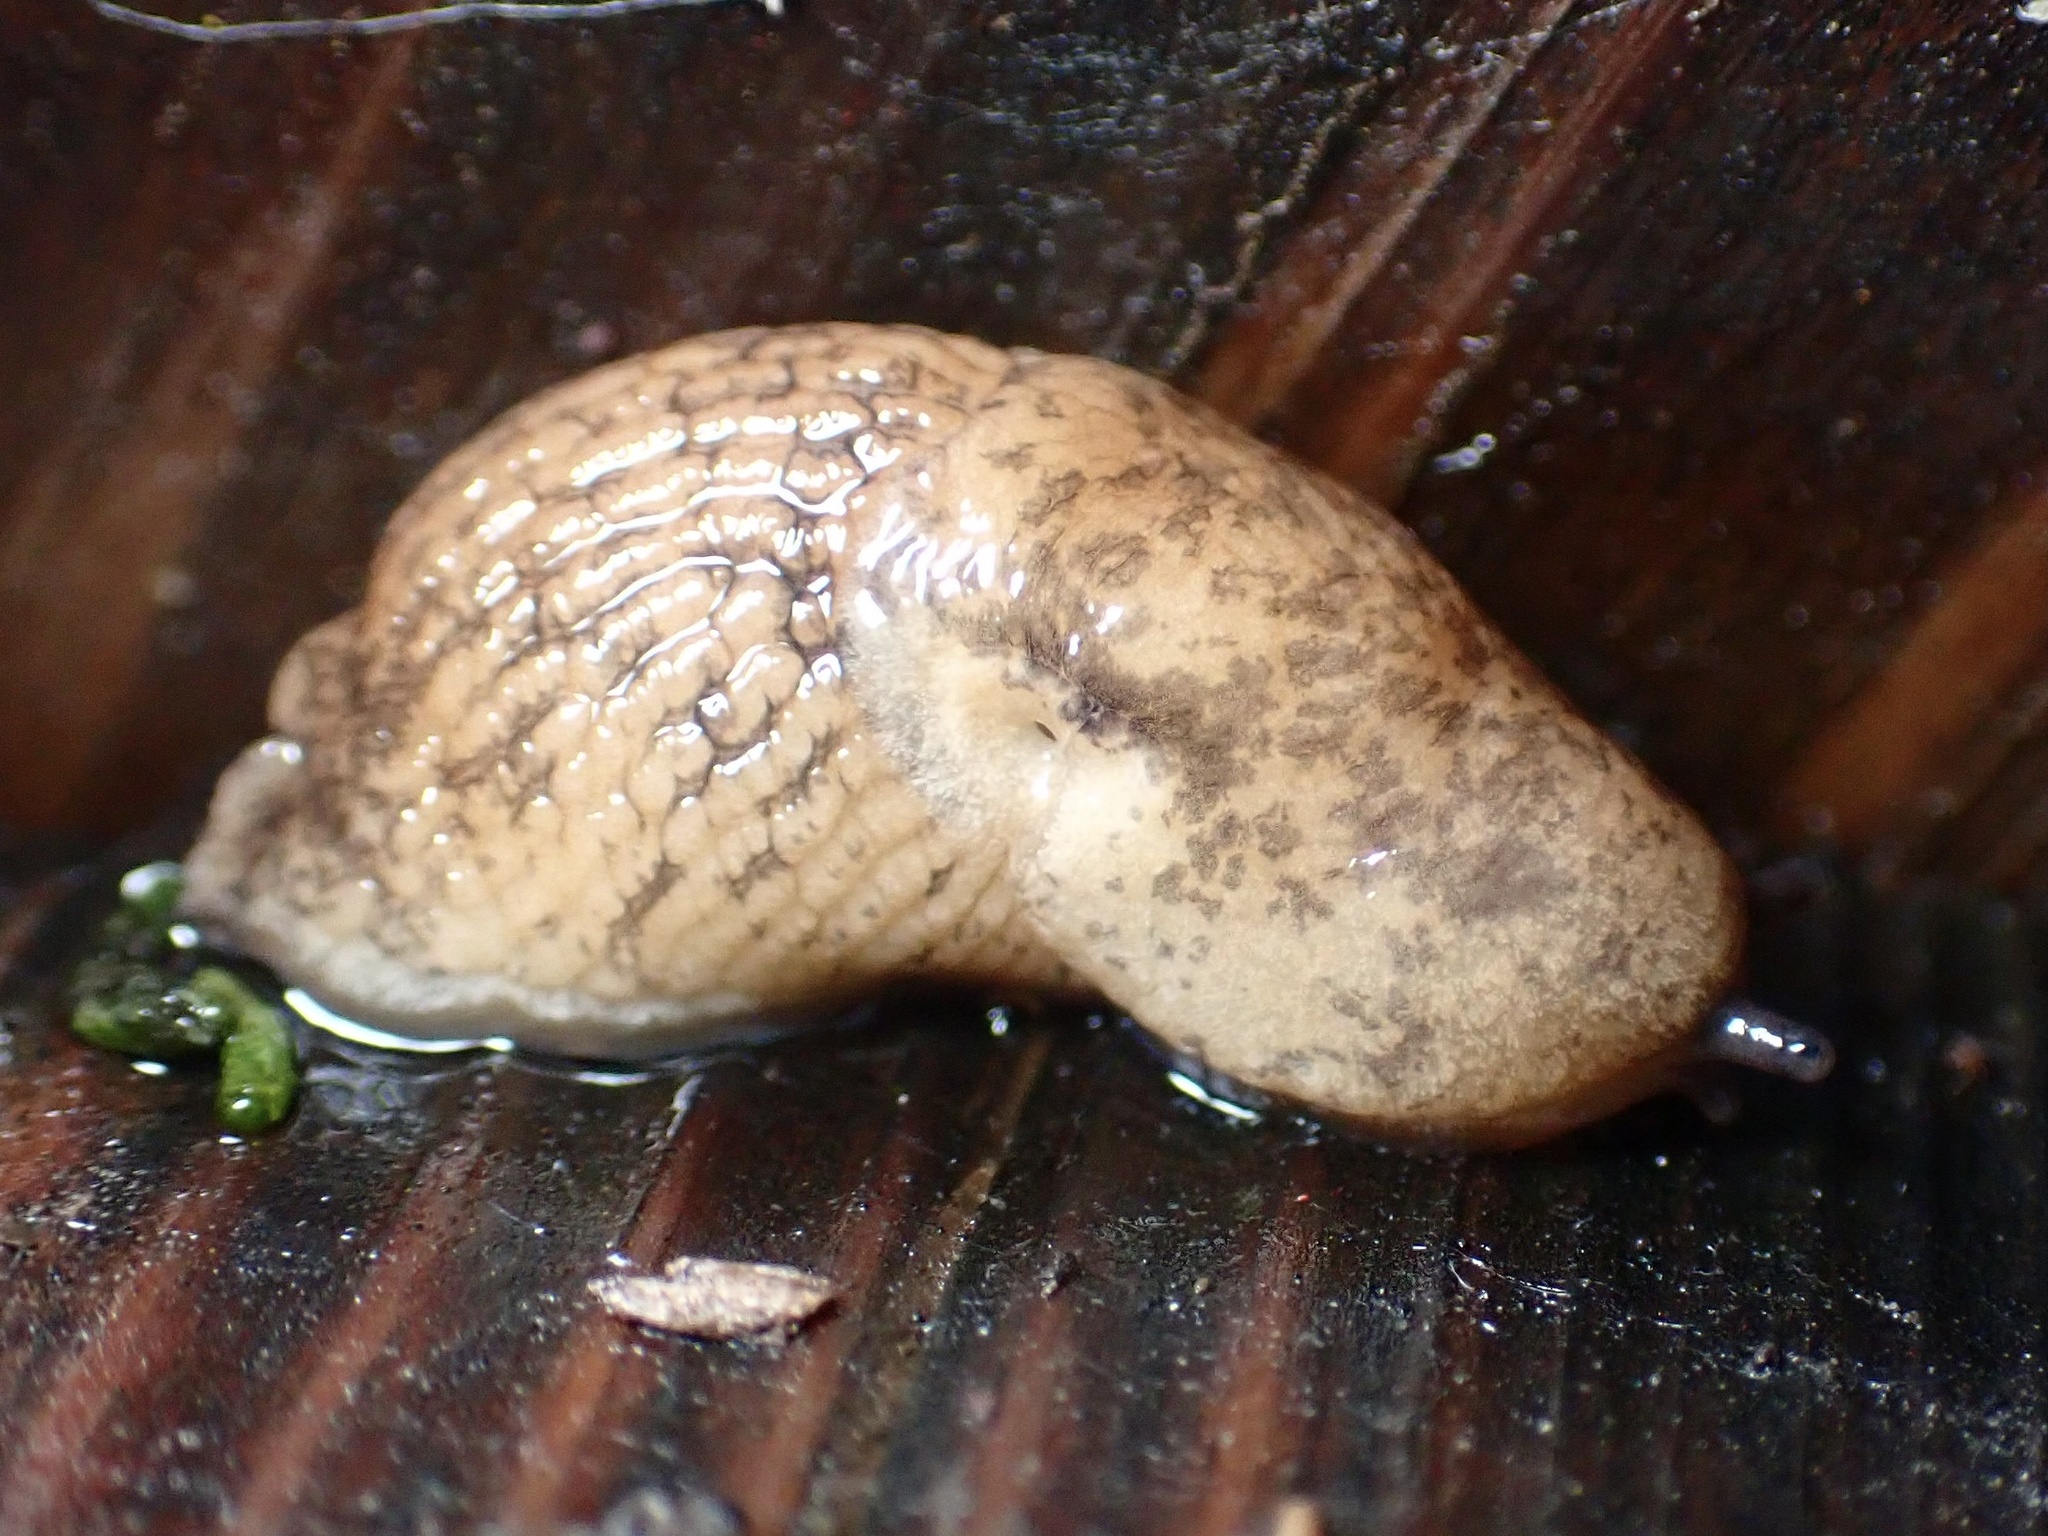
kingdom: Animalia
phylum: Mollusca
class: Gastropoda
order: Stylommatophora
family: Agriolimacidae
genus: Deroceras
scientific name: Deroceras reticulatum
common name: Gray field slug
